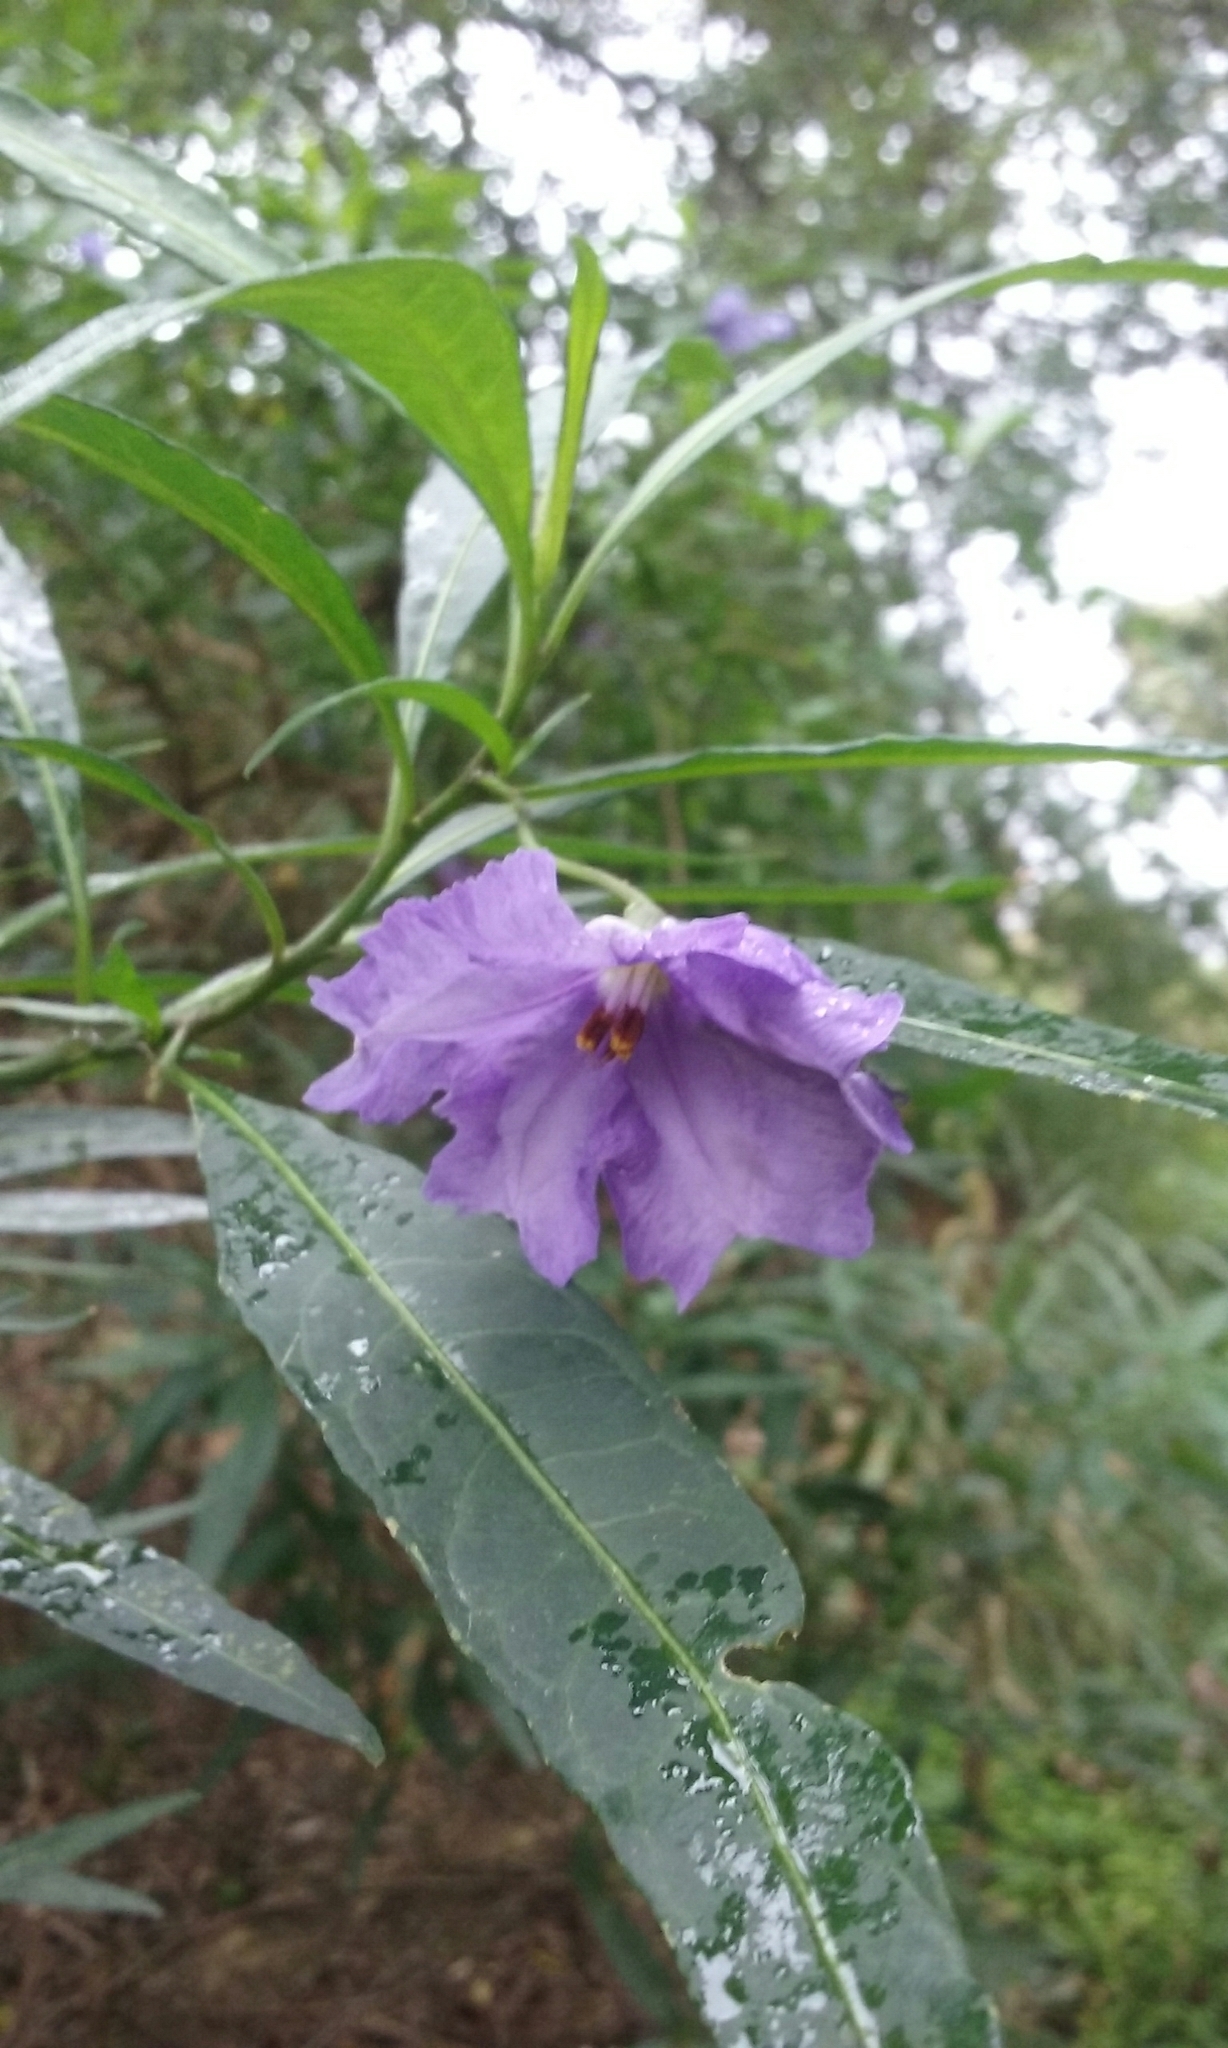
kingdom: Plantae
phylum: Tracheophyta
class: Magnoliopsida
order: Solanales
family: Solanaceae
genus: Solanum
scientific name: Solanum laciniatum
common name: Kangaroo-apple
